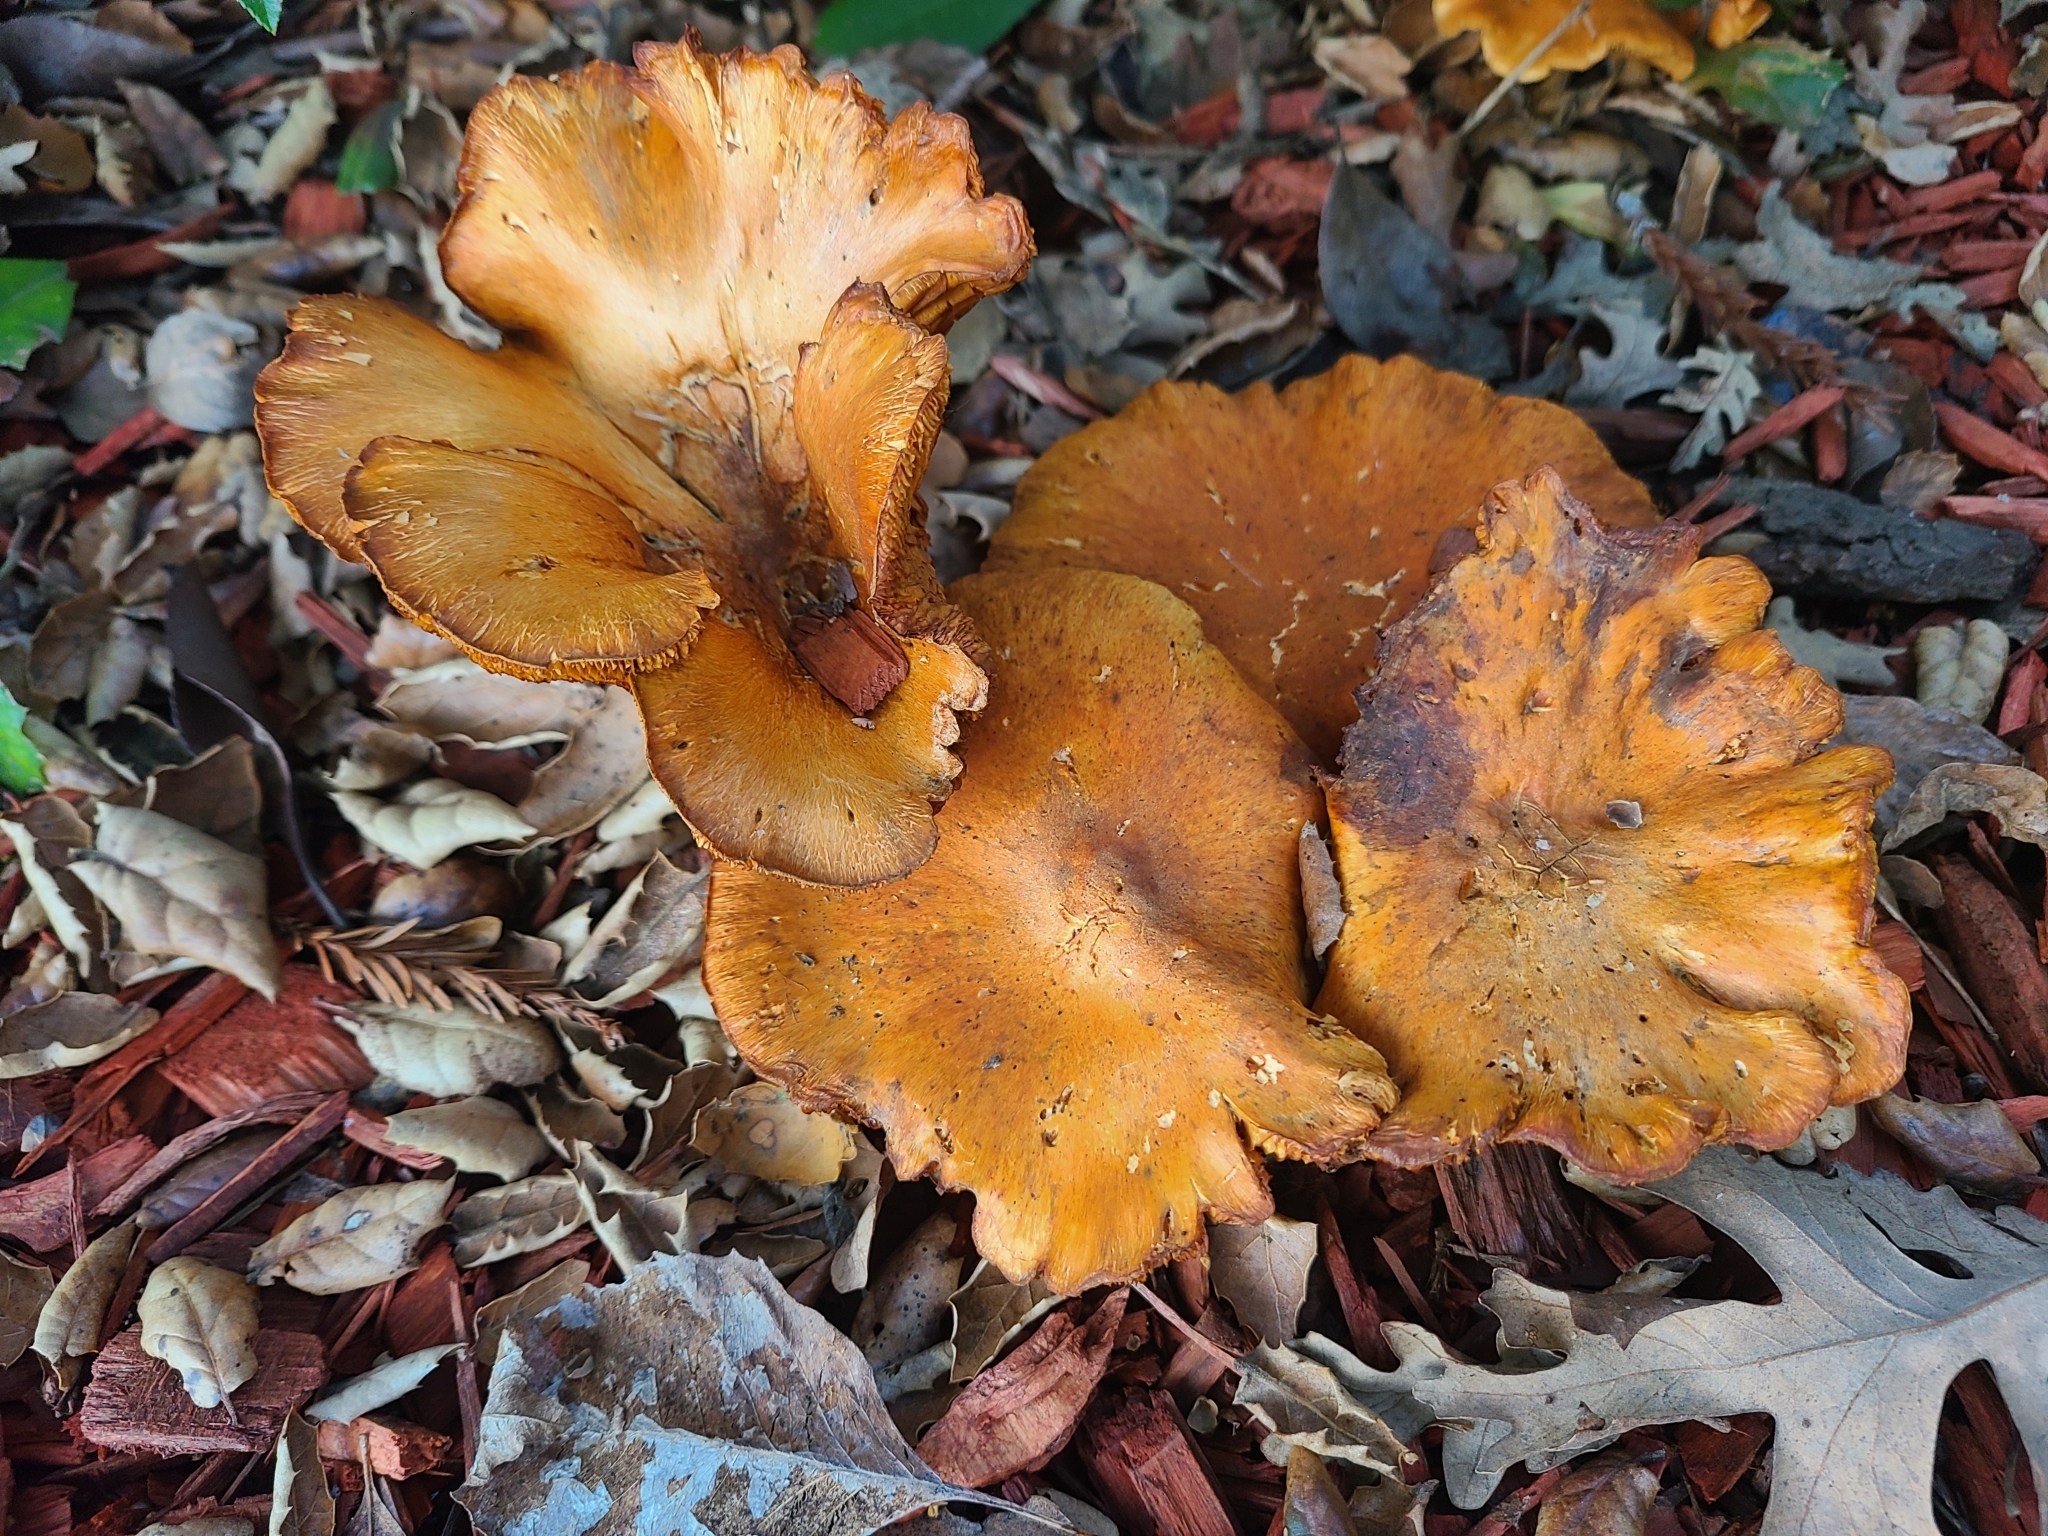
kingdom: Fungi
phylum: Basidiomycota
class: Agaricomycetes
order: Agaricales
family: Hymenogastraceae
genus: Gymnopilus
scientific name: Gymnopilus aurantiophyllus
